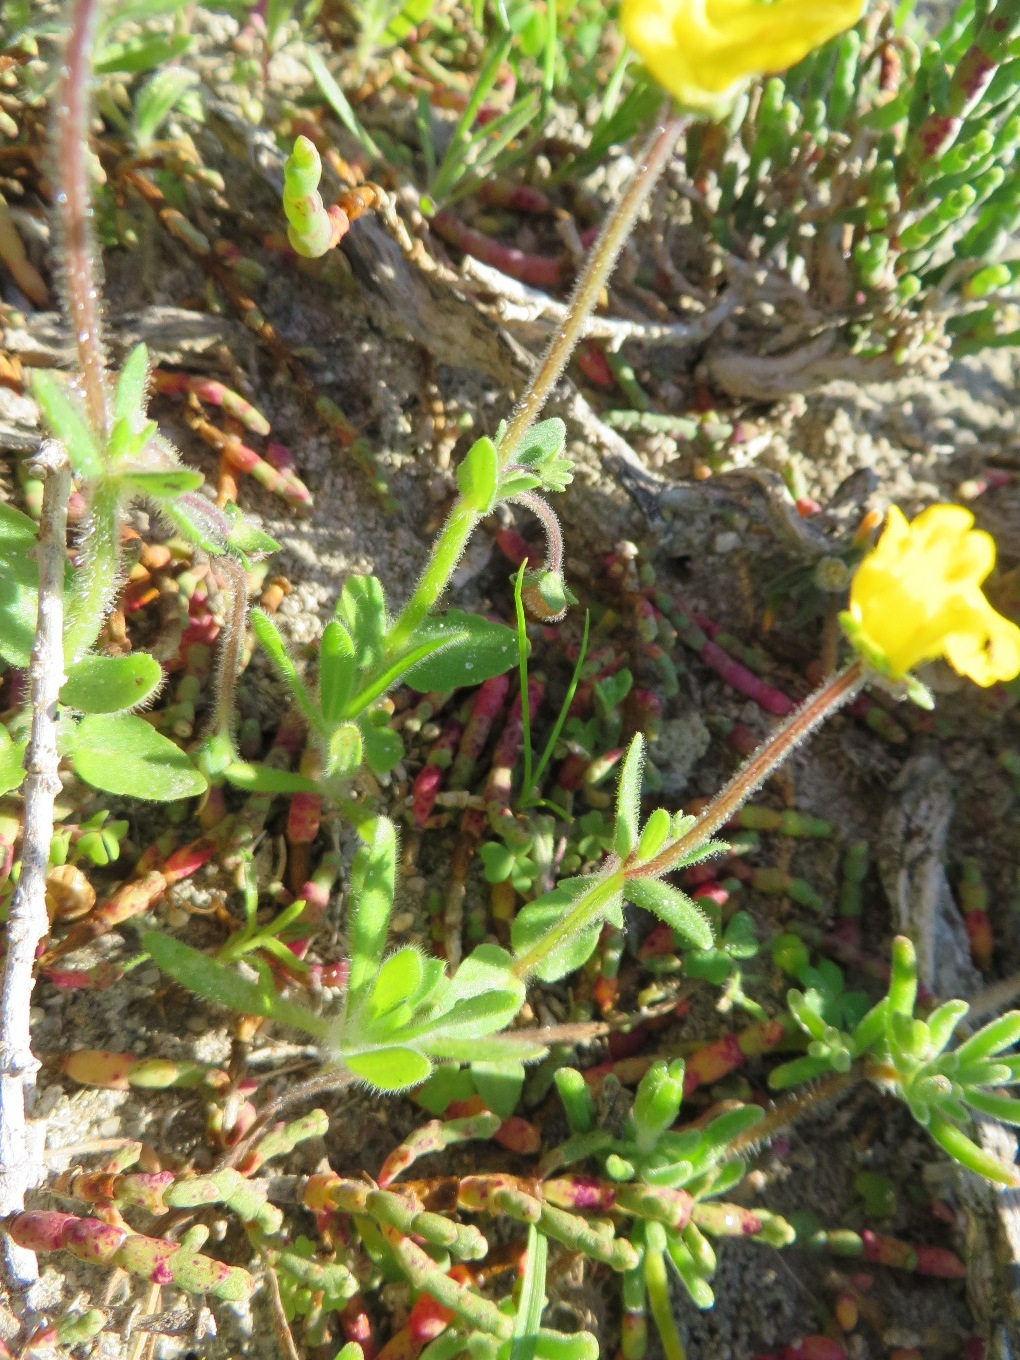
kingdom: Plantae
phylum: Tracheophyta
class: Magnoliopsida
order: Lamiales
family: Scrophulariaceae
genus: Hemimeris
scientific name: Hemimeris sabulosa
